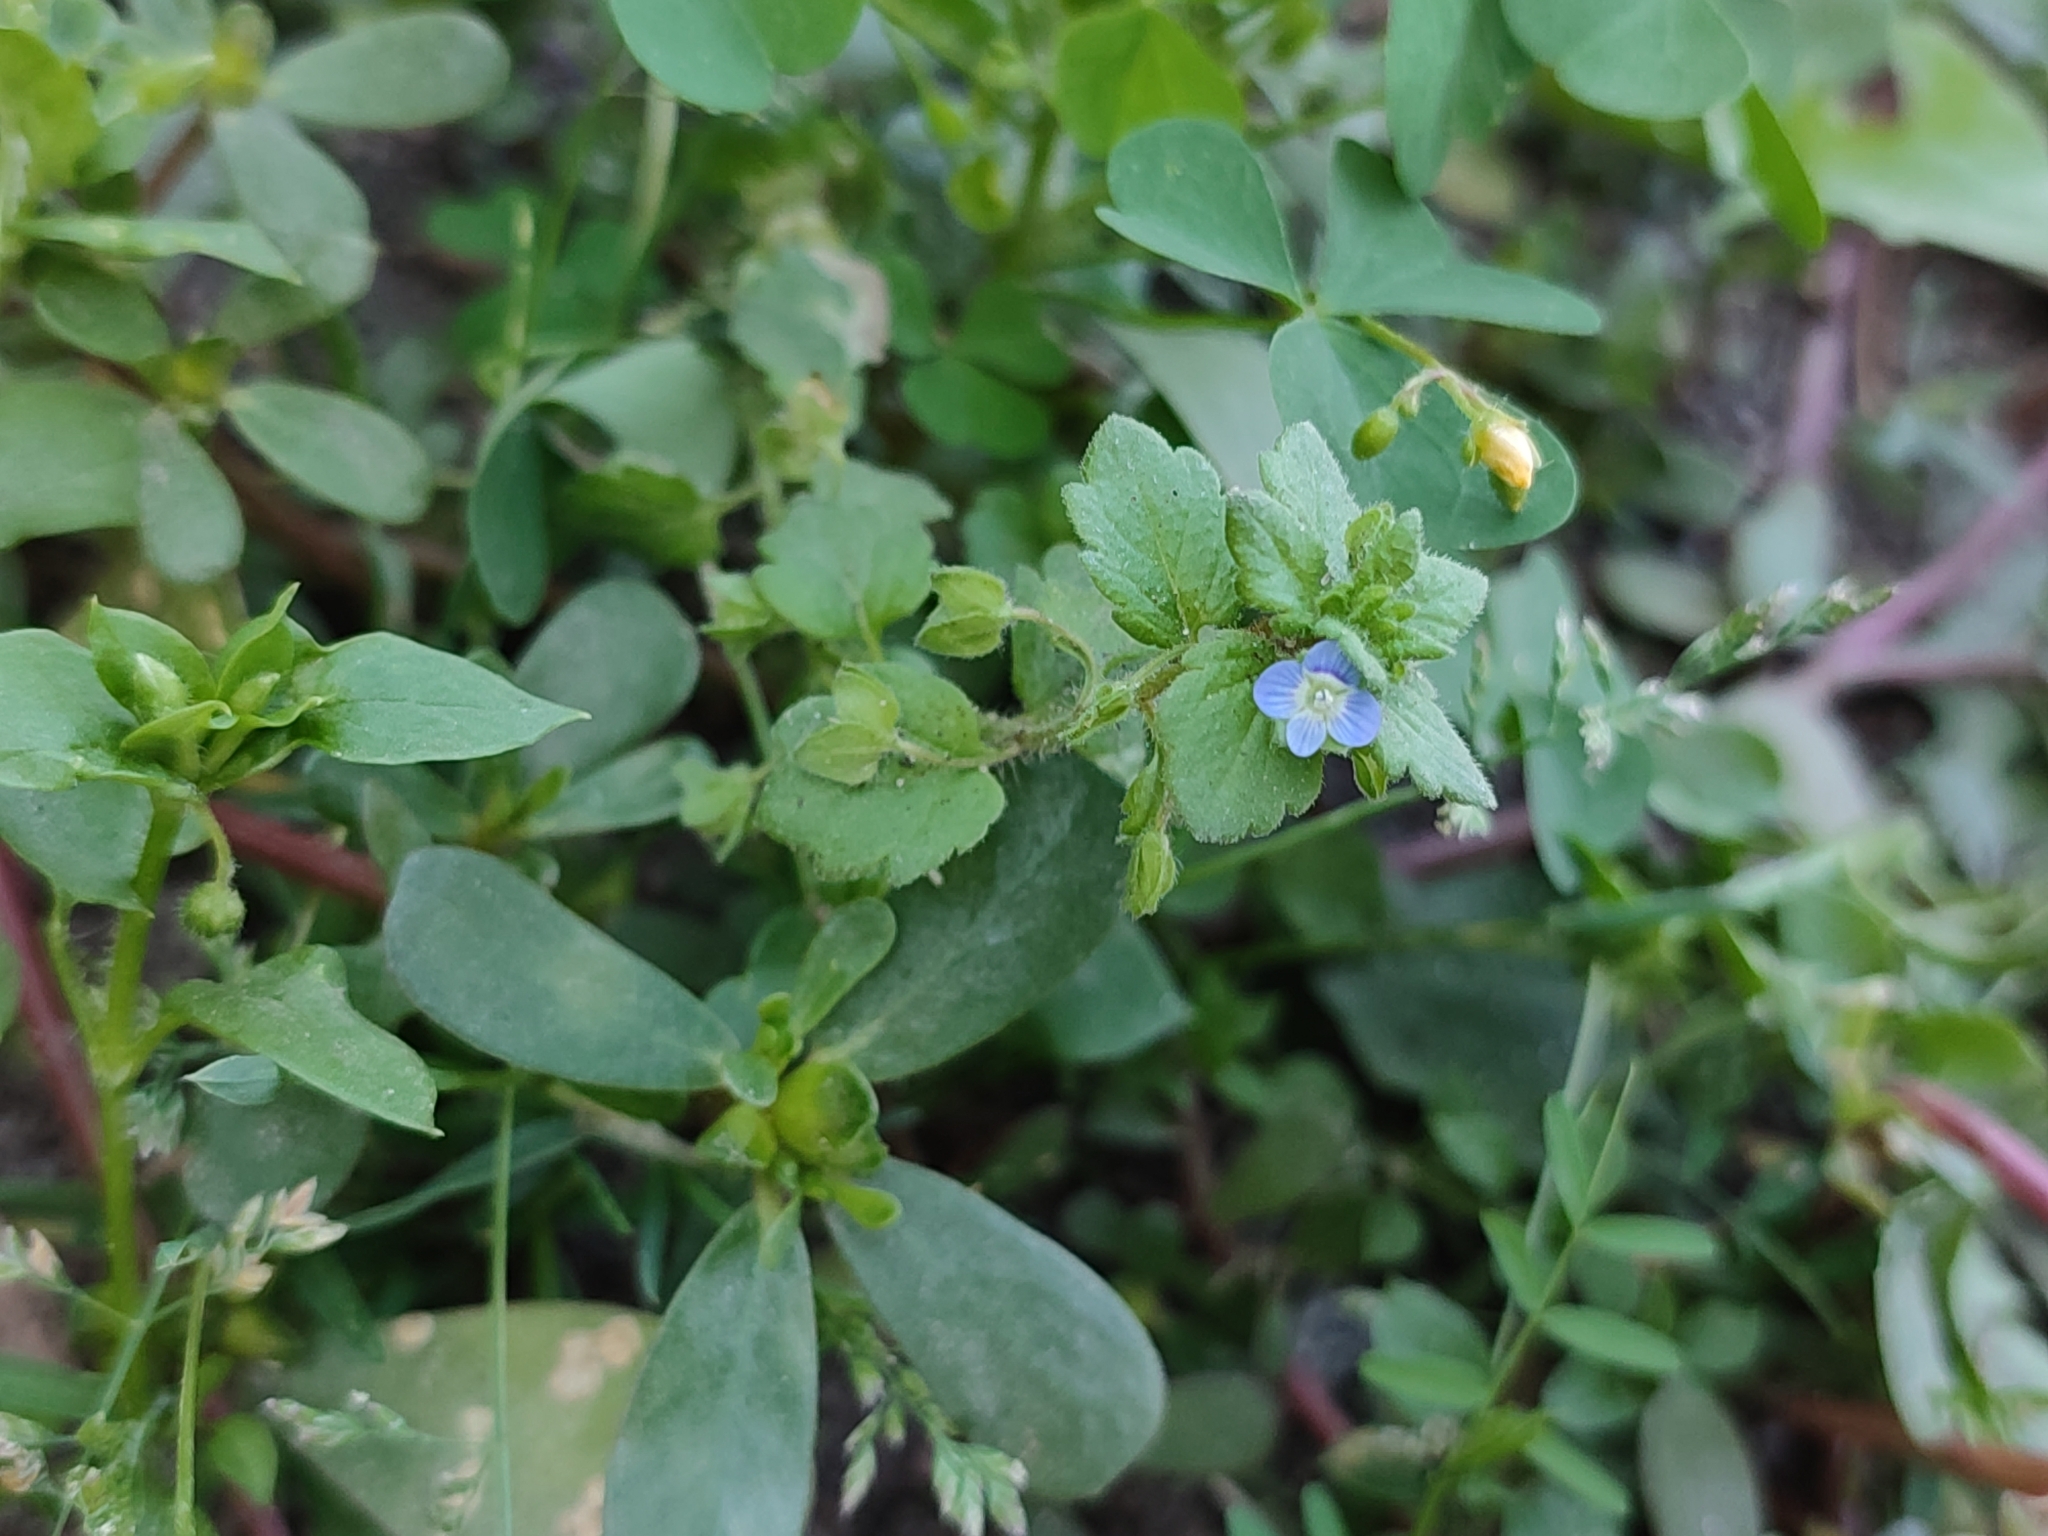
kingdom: Plantae
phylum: Tracheophyta
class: Magnoliopsida
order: Lamiales
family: Plantaginaceae
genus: Veronica
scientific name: Veronica polita
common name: Grey field-speedwell
